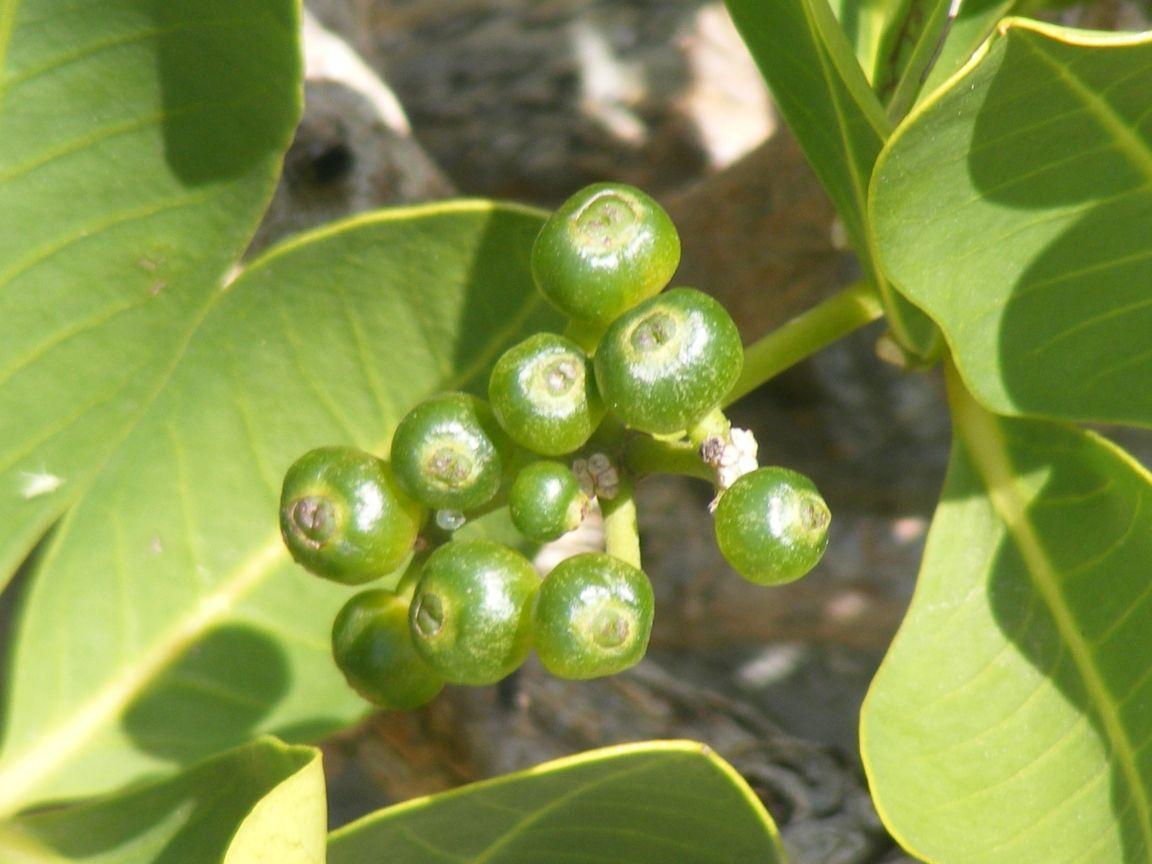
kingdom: Plantae
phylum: Tracheophyta
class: Magnoliopsida
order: Gentianales
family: Rubiaceae
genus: Psychotria
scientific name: Psychotria
